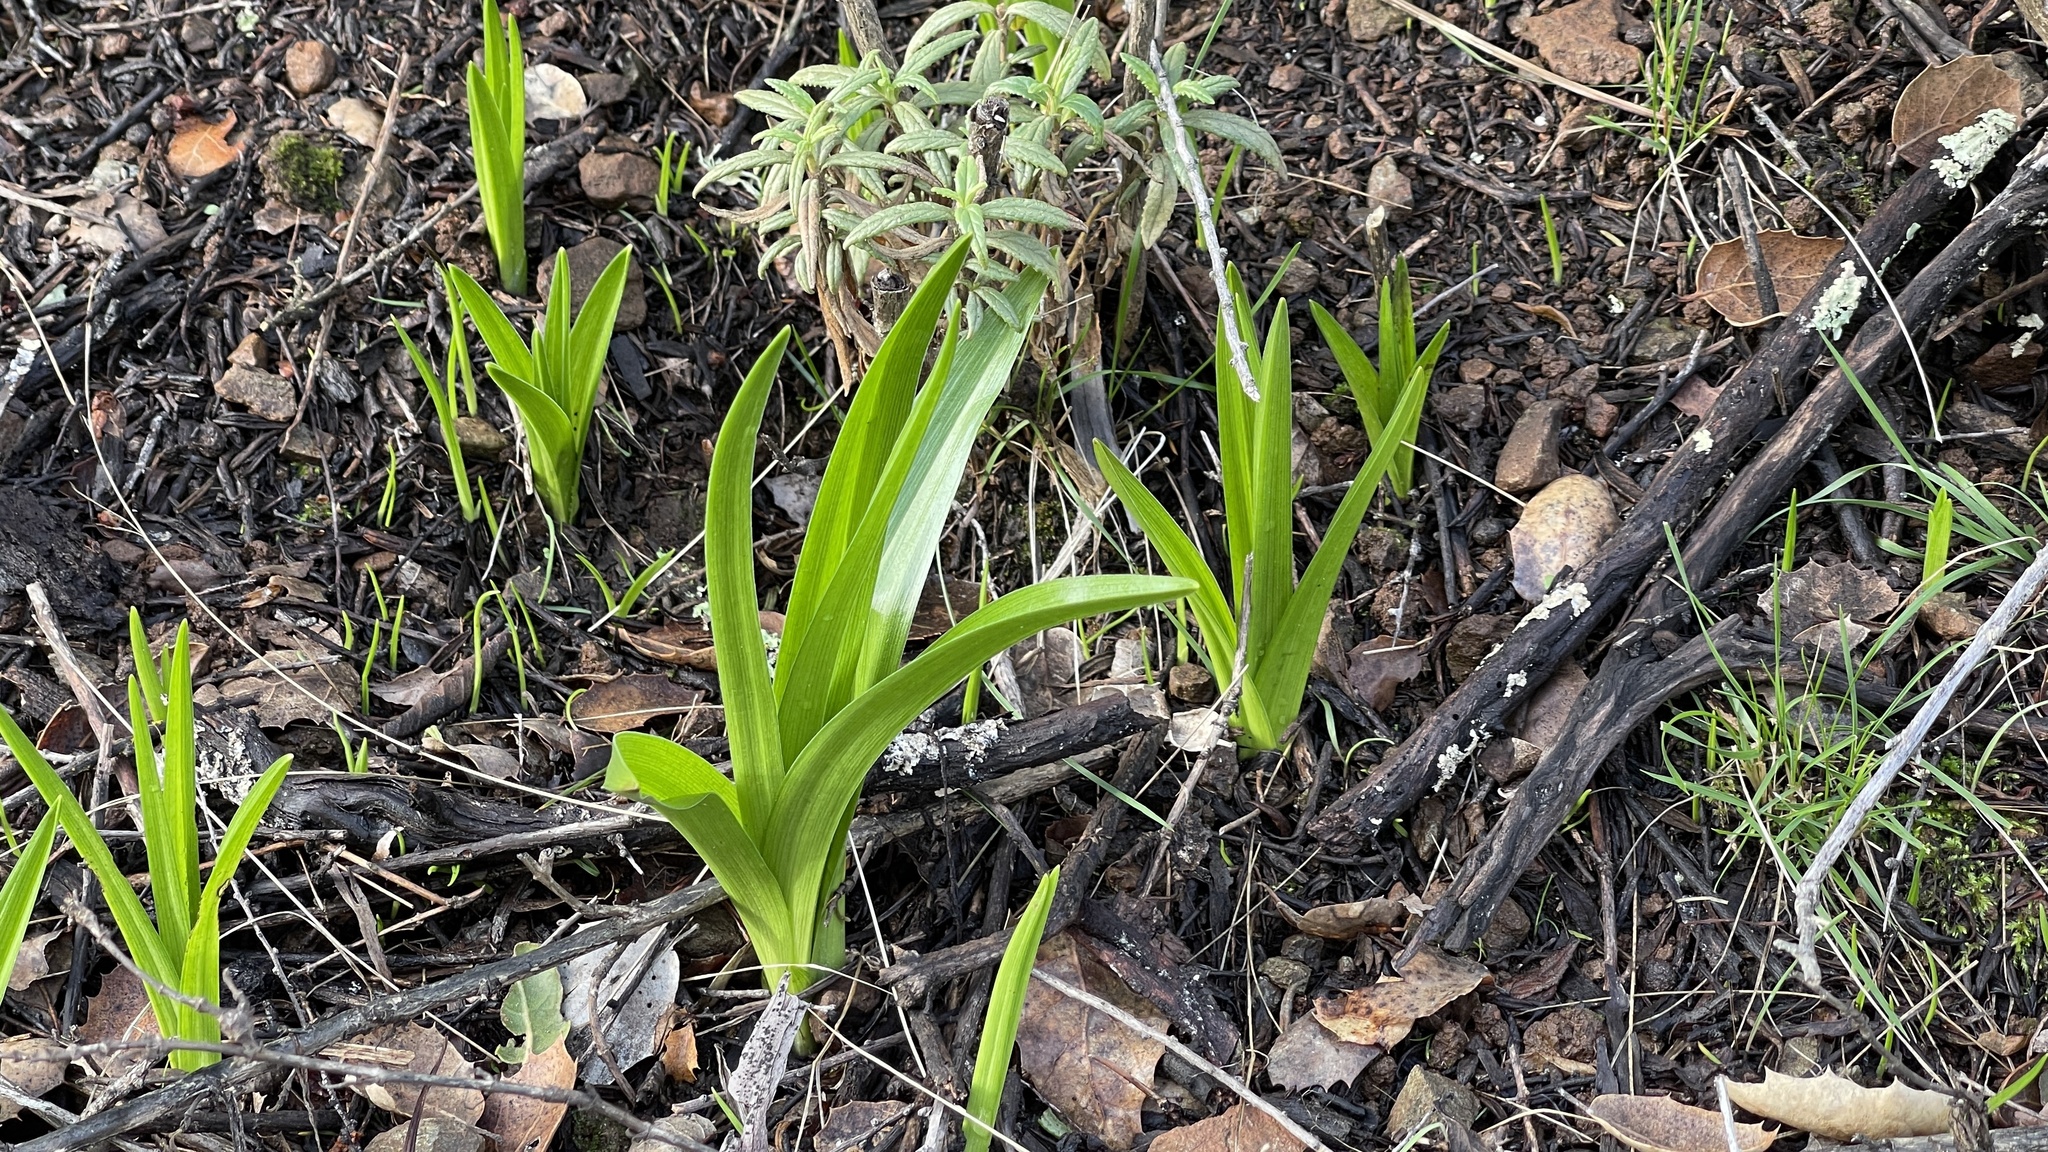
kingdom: Plantae
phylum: Tracheophyta
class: Liliopsida
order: Liliales
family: Melanthiaceae
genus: Toxicoscordion
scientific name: Toxicoscordion fremontii
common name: Fremont's death camas
